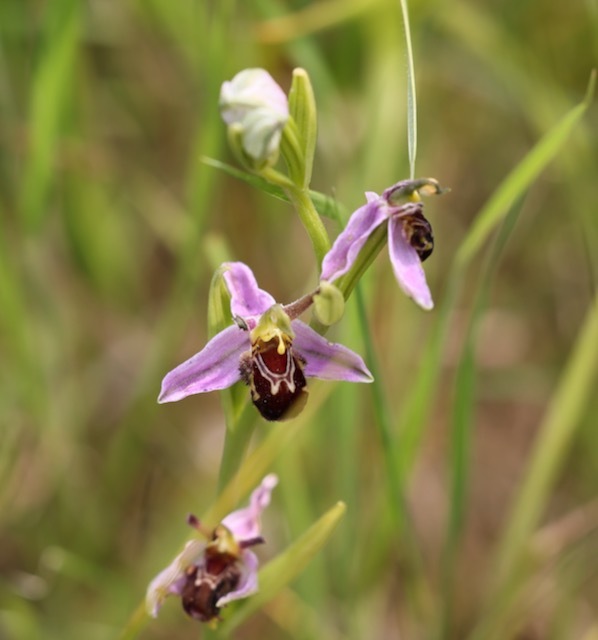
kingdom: Plantae
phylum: Tracheophyta
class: Liliopsida
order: Asparagales
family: Orchidaceae
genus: Ophrys
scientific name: Ophrys apifera
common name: Bee orchid
